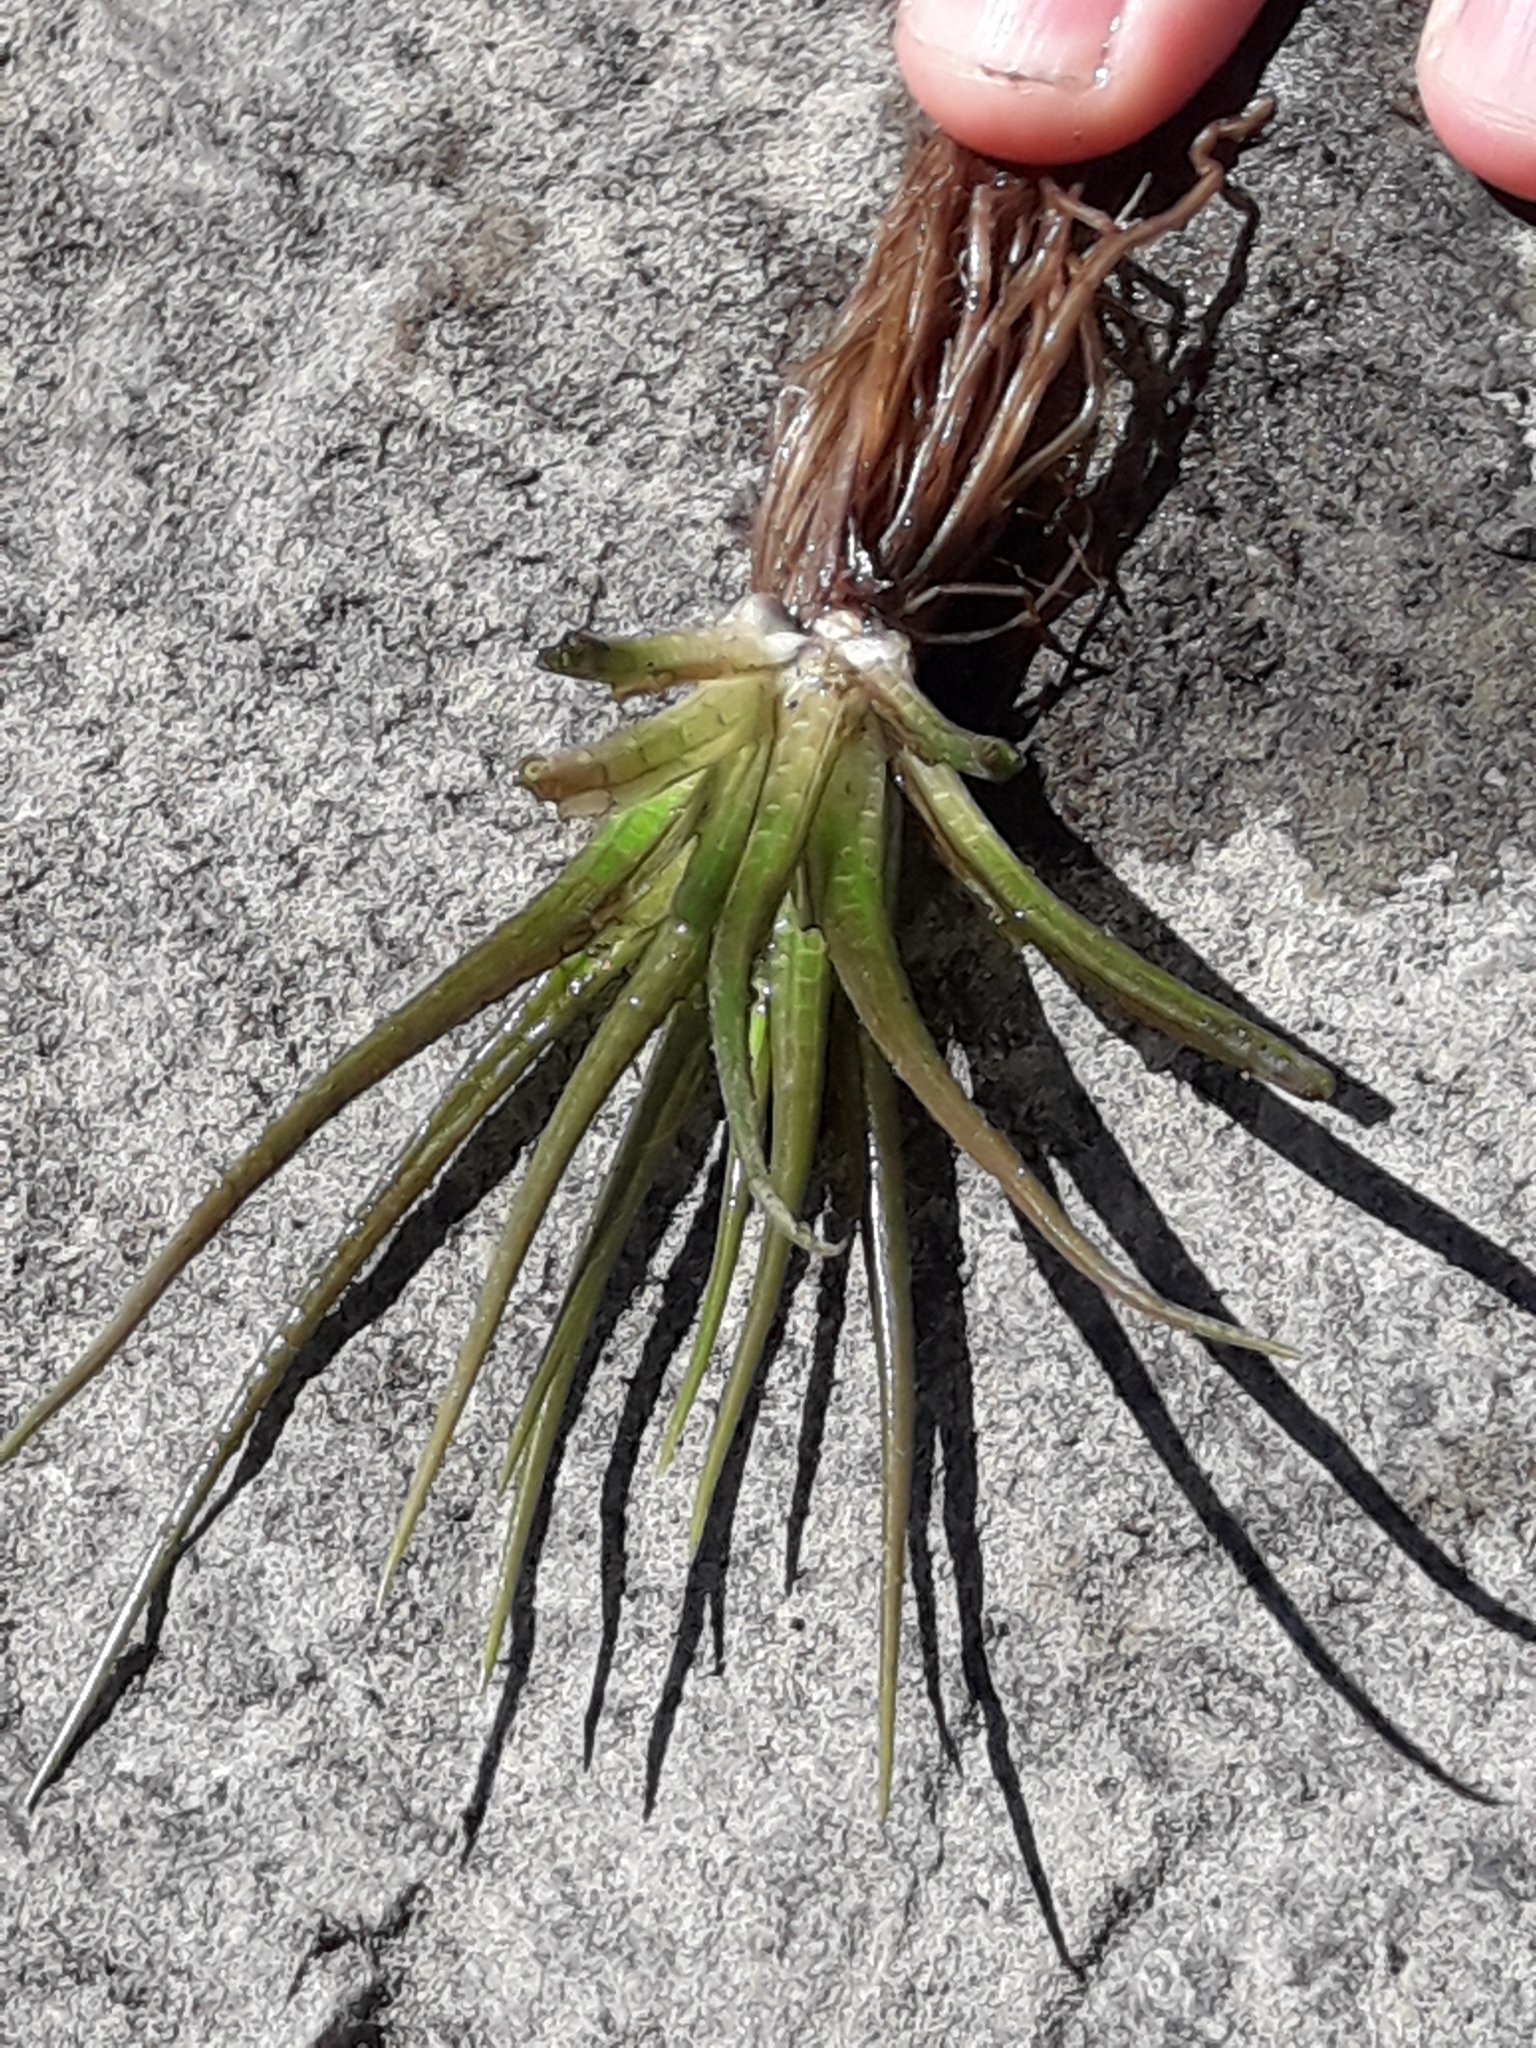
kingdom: Plantae
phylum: Tracheophyta
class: Lycopodiopsida
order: Isoetales
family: Isoetaceae
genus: Isoetes
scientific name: Isoetes alpina
